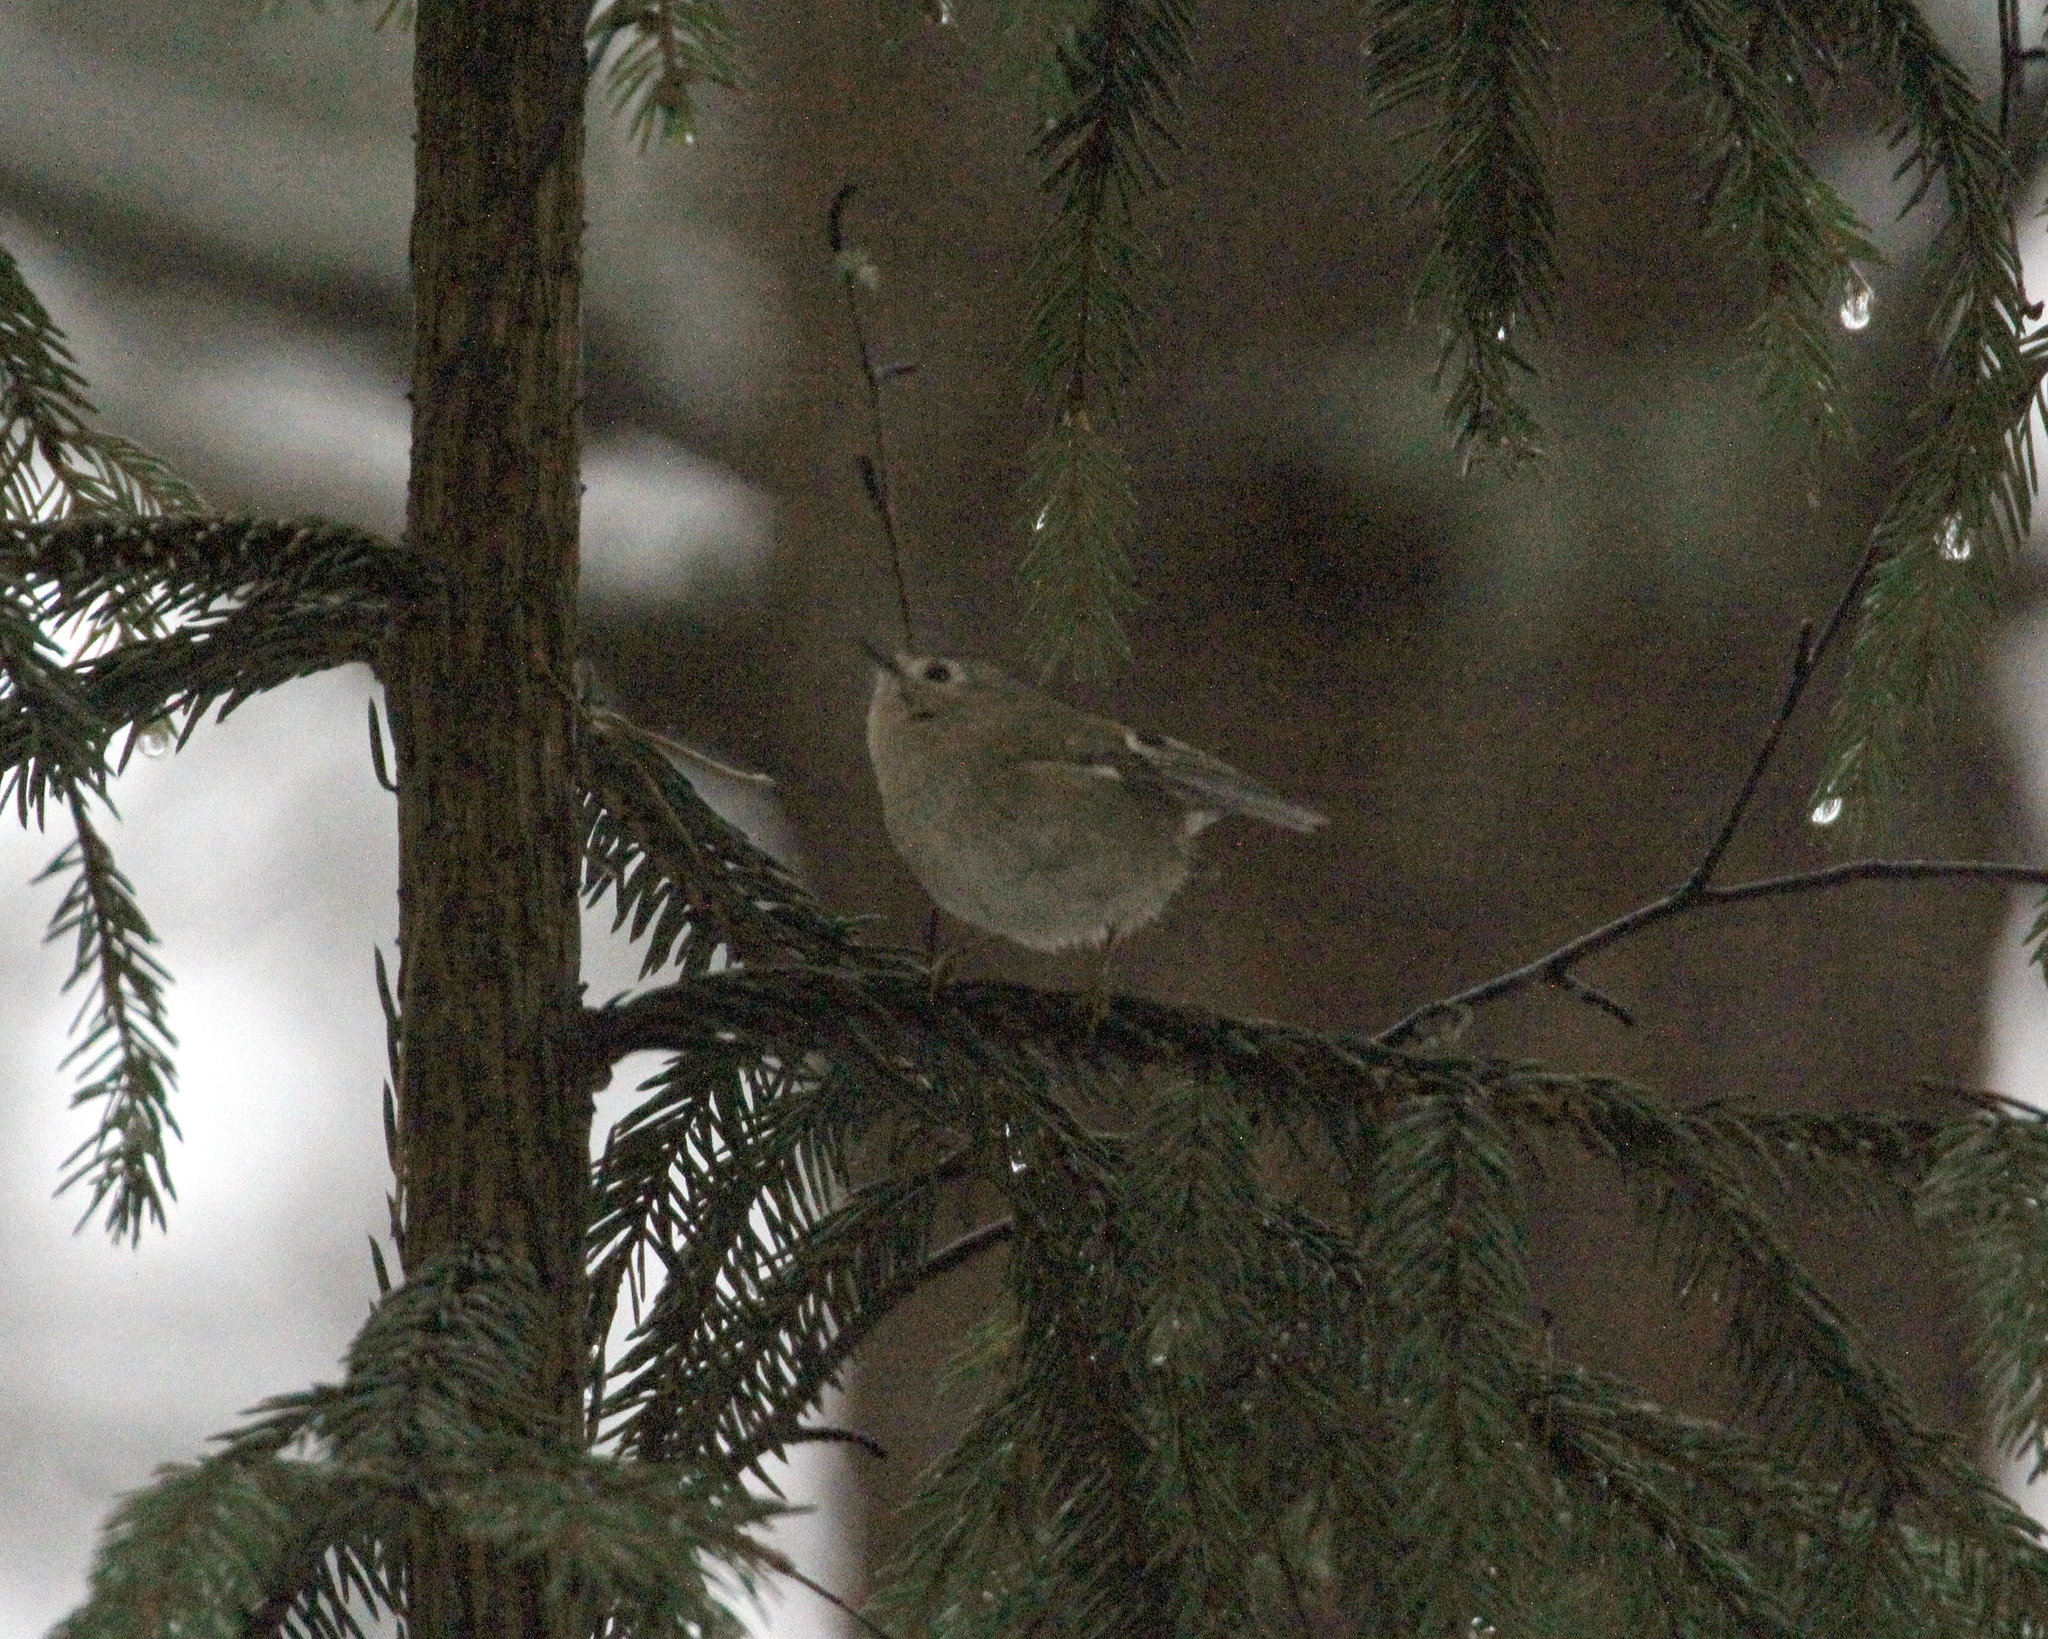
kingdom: Animalia
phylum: Chordata
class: Aves
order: Passeriformes
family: Regulidae
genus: Regulus
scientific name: Regulus regulus
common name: Goldcrest
